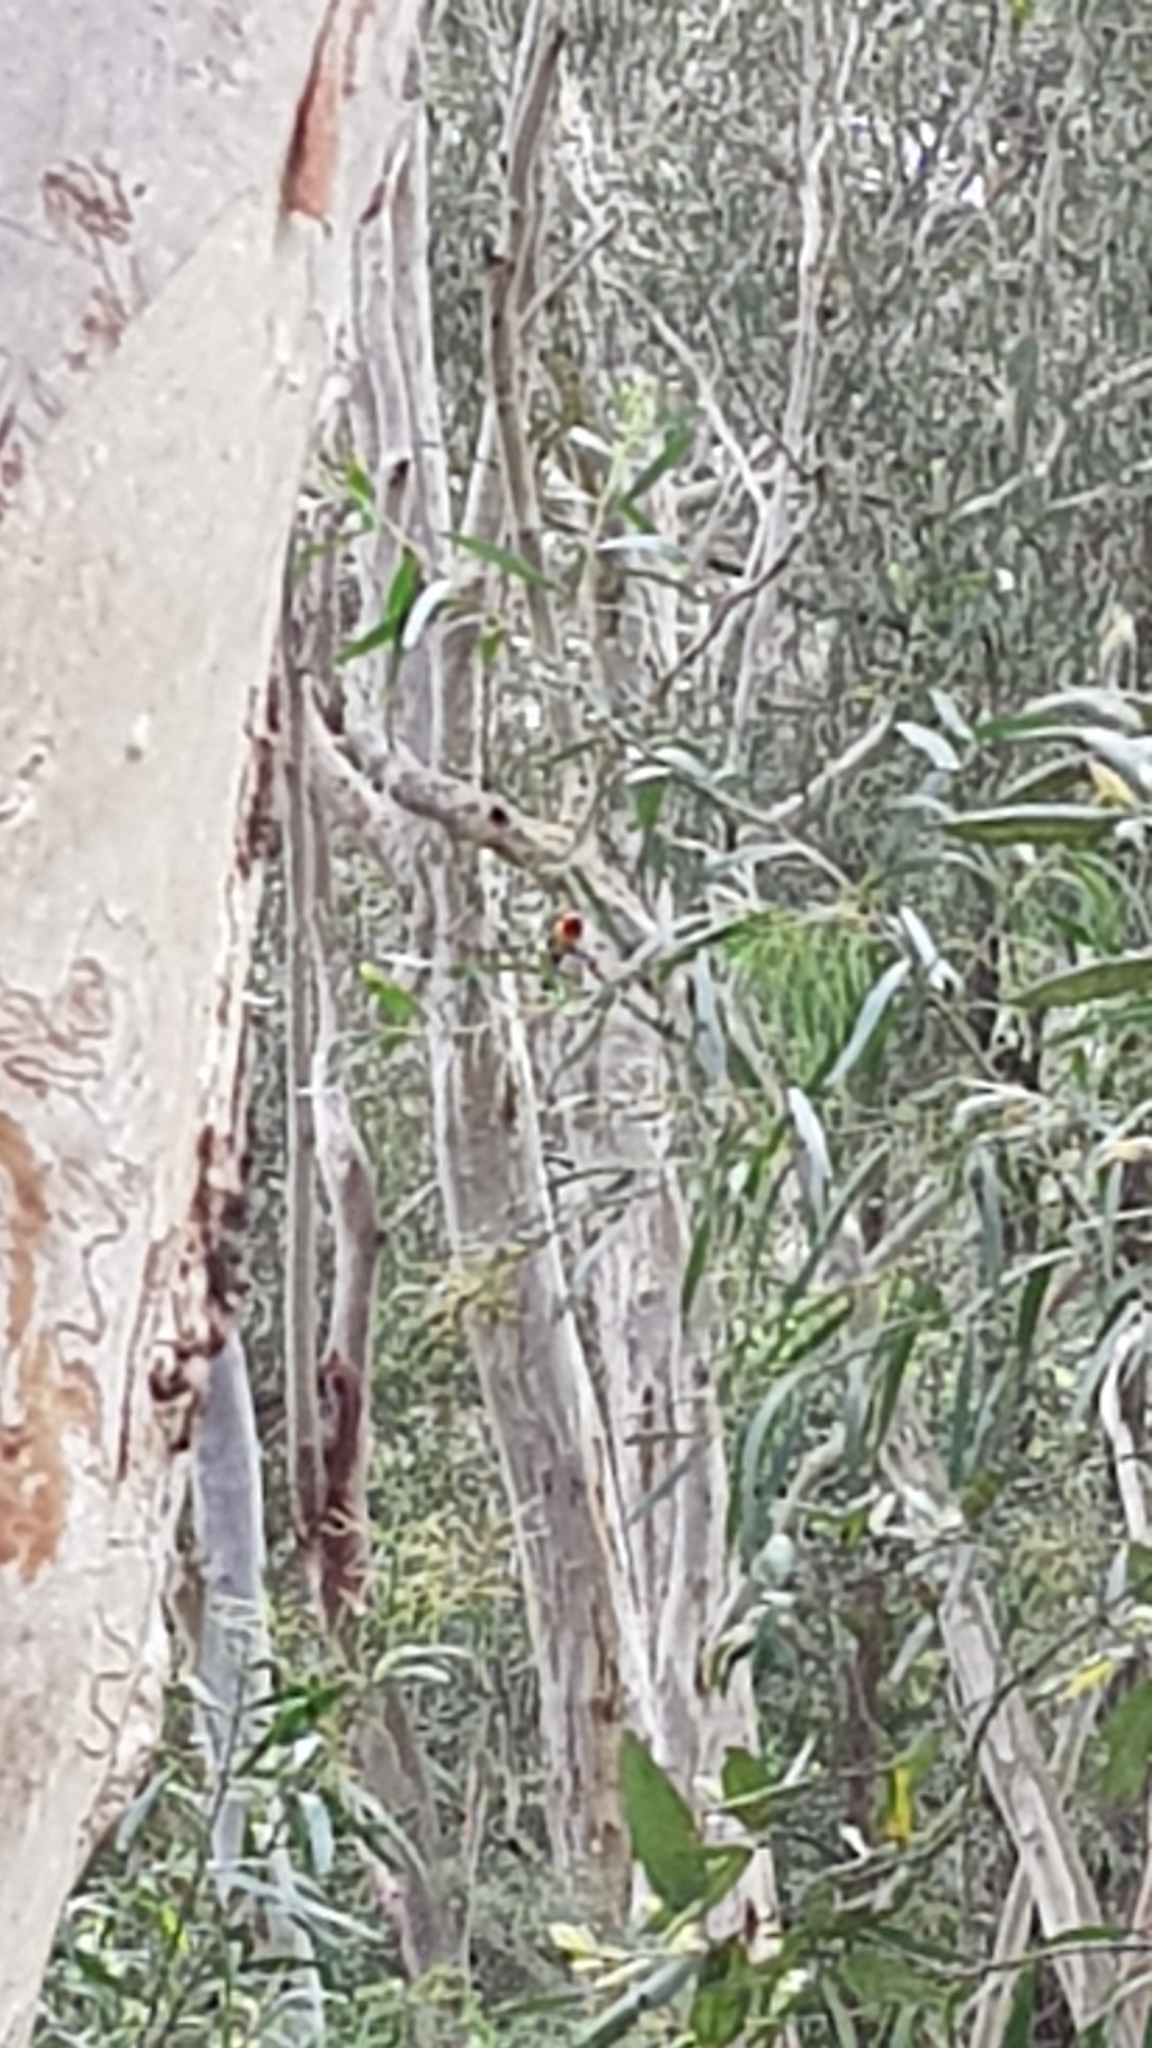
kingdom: Animalia
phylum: Chordata
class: Aves
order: Psittaciformes
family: Psittacidae
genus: Platycercus
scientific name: Platycercus eximius
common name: Eastern rosella
